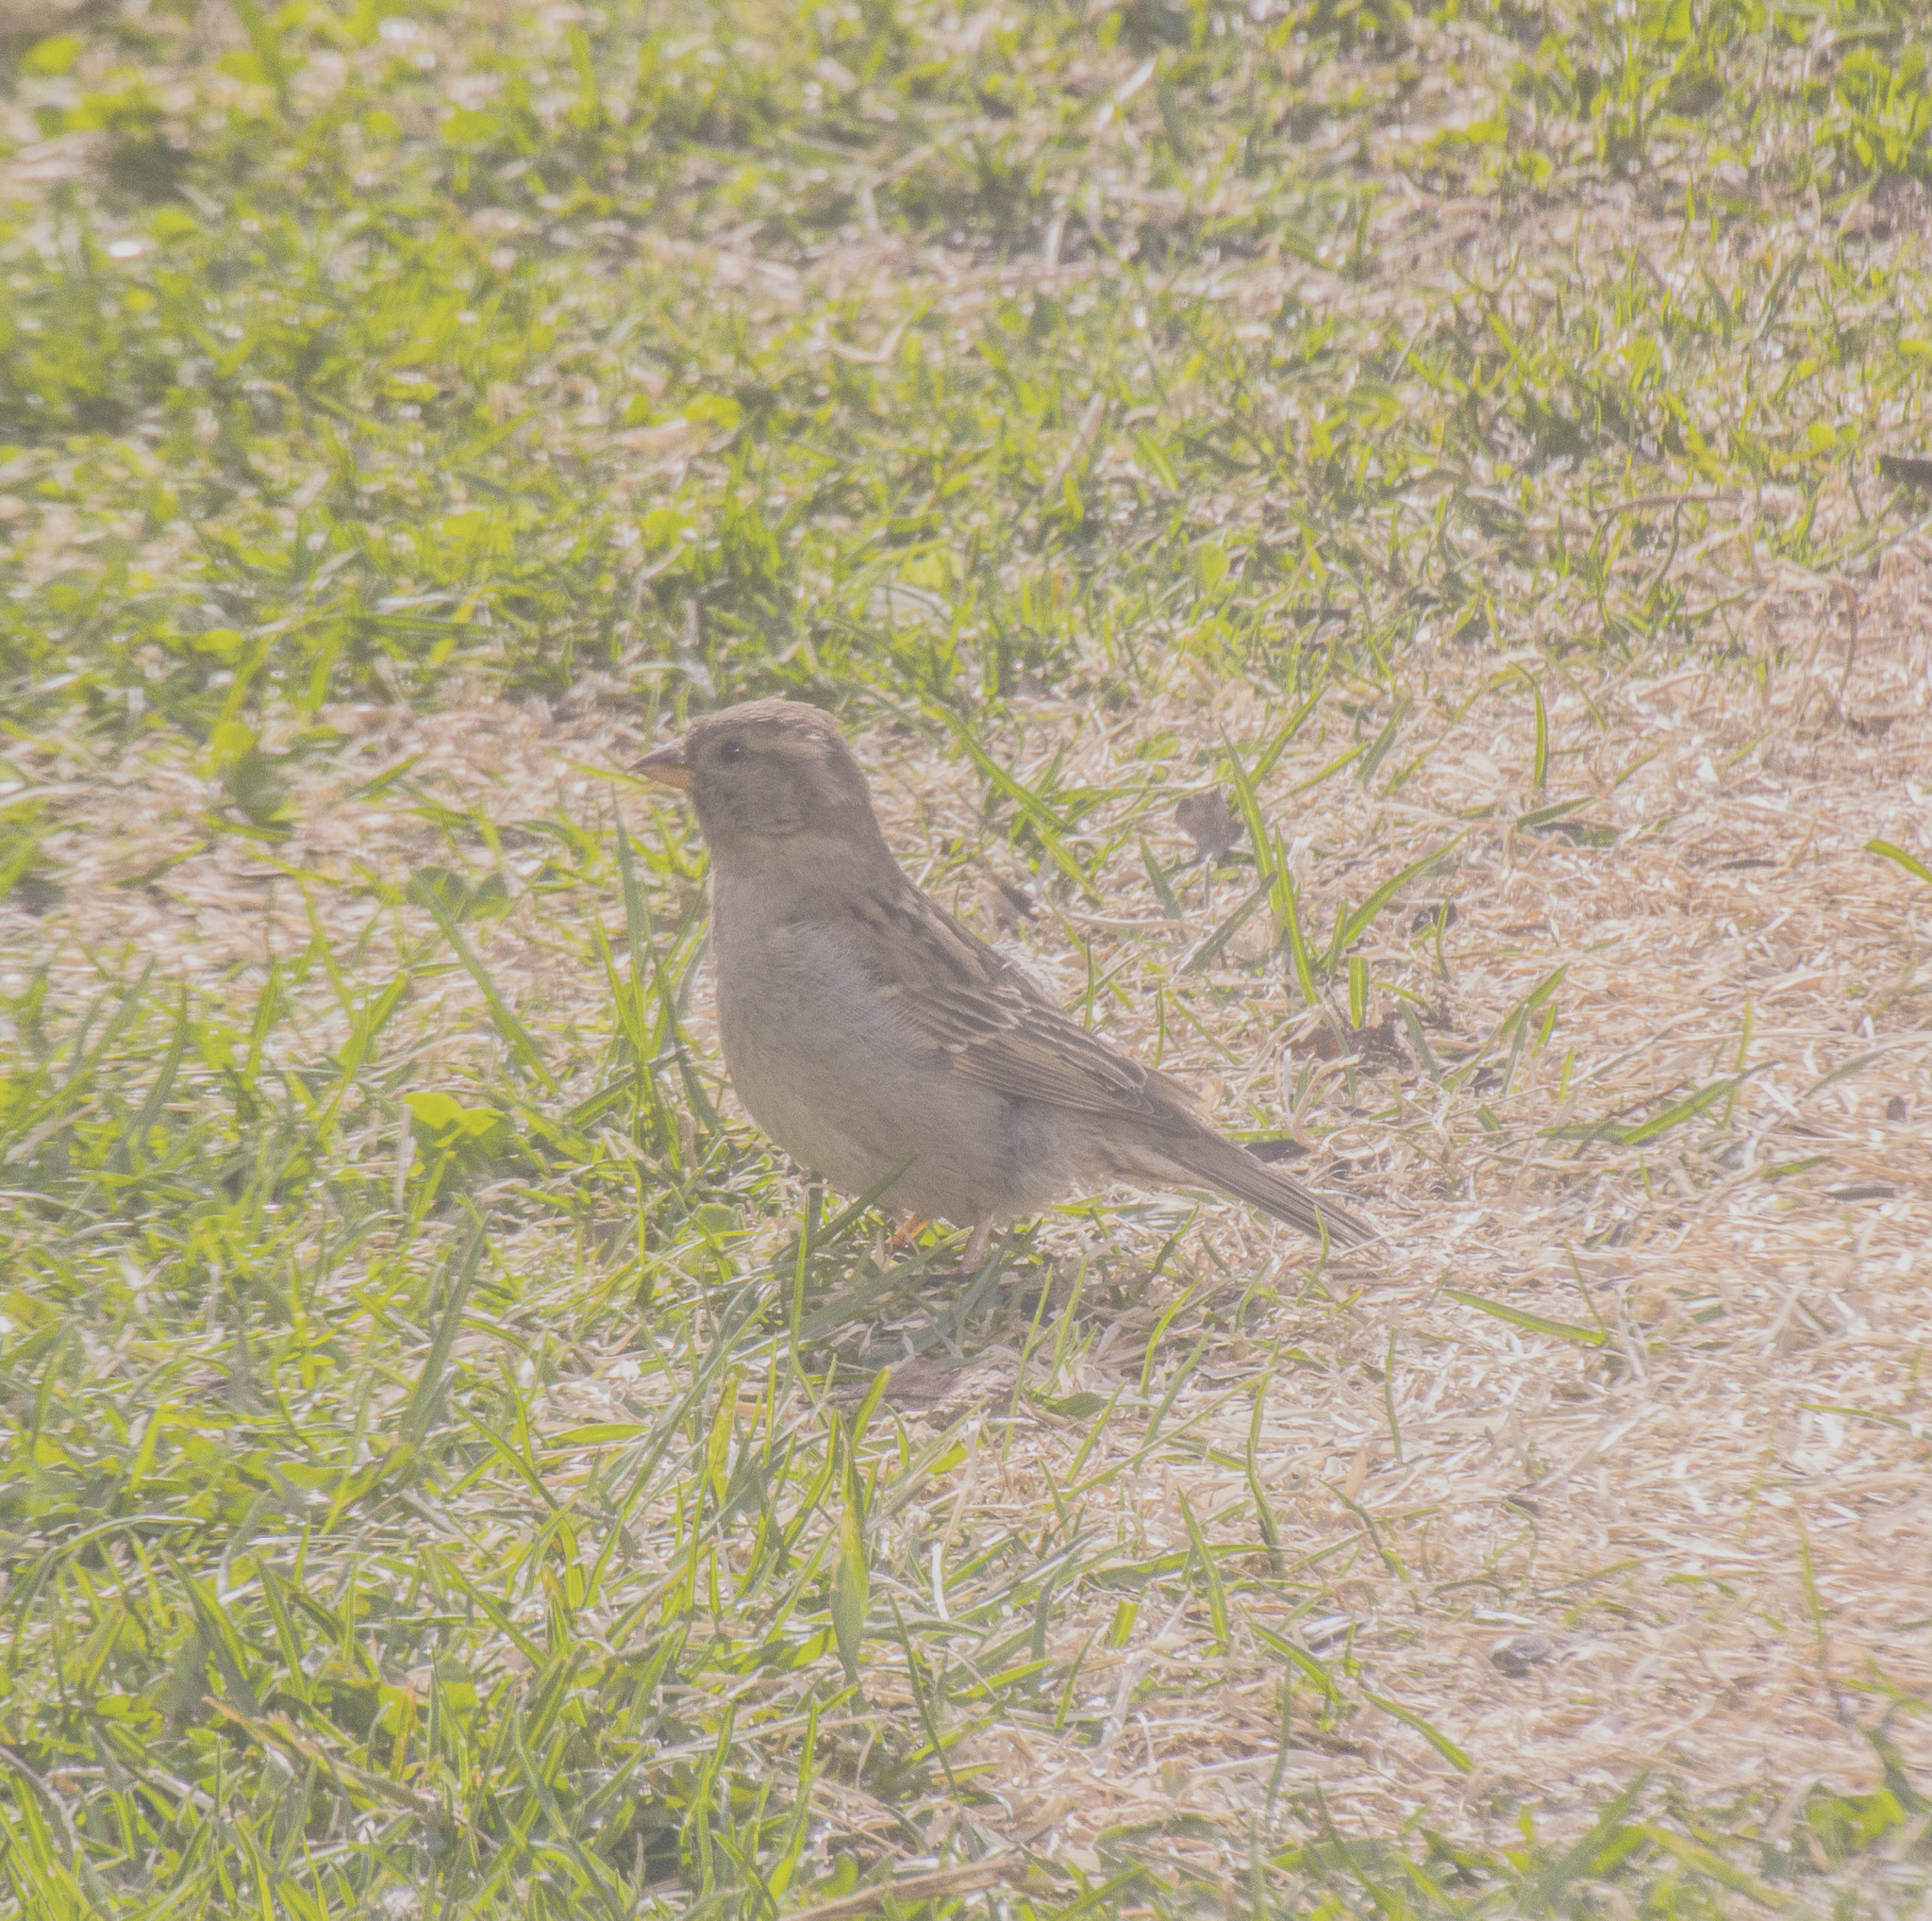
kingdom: Animalia
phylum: Chordata
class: Aves
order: Passeriformes
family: Passeridae
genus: Passer
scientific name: Passer domesticus
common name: House sparrow
